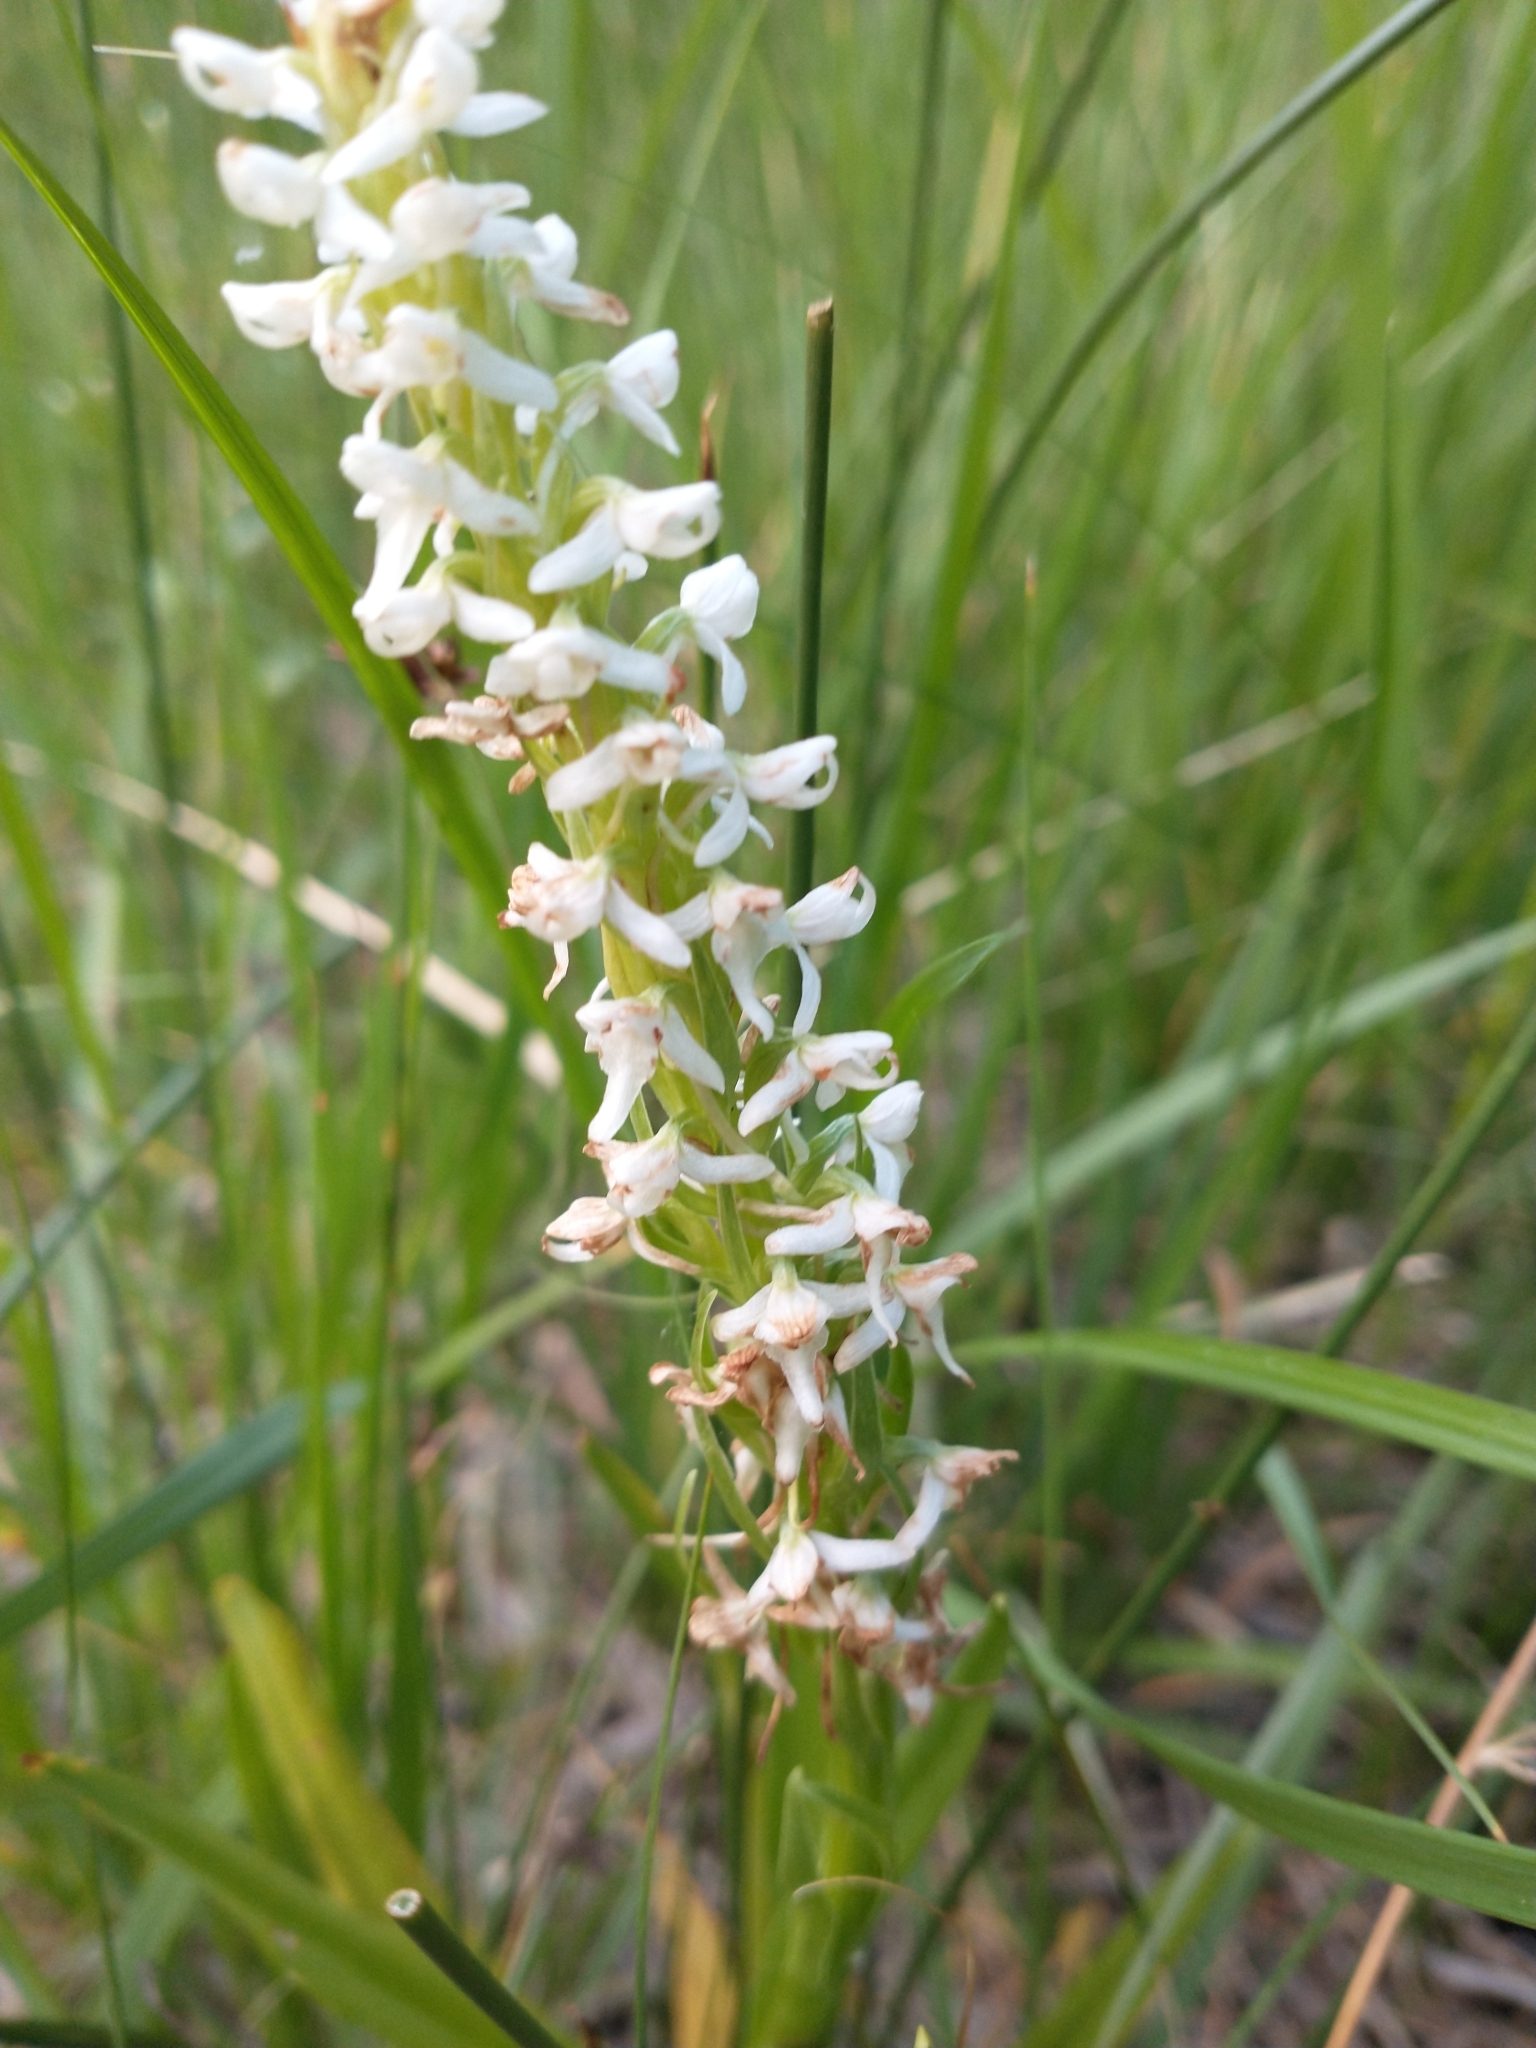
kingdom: Plantae
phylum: Tracheophyta
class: Liliopsida
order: Asparagales
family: Orchidaceae
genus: Platanthera
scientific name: Platanthera dilatata
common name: Bog candles
